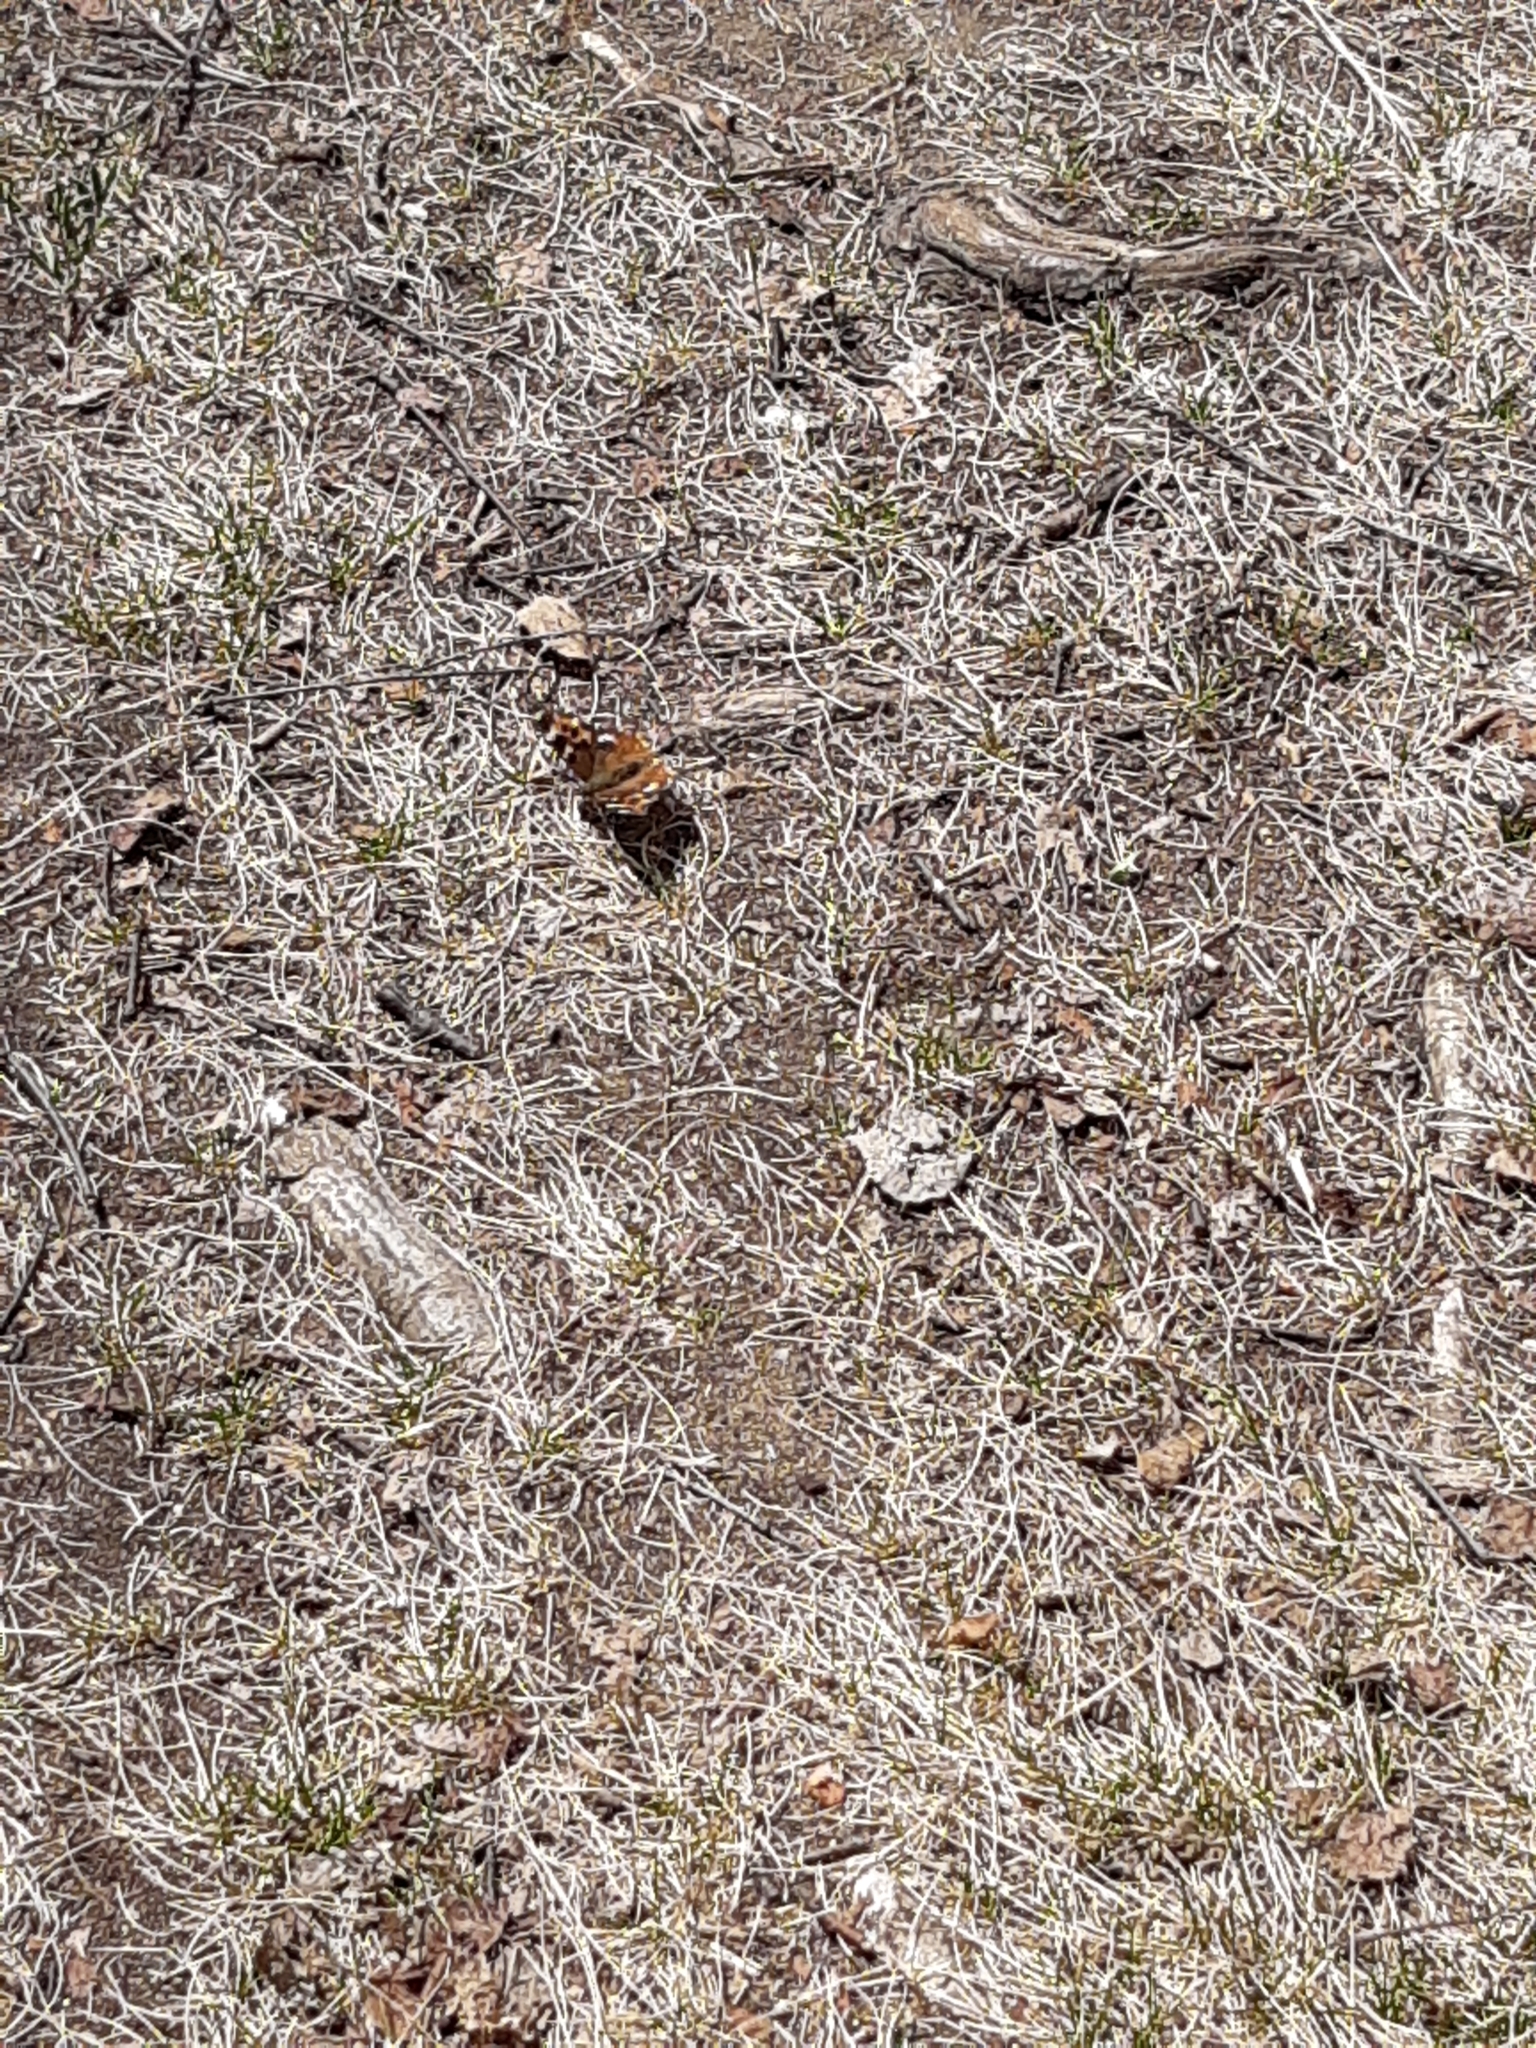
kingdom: Animalia
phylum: Arthropoda
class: Insecta
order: Lepidoptera
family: Nymphalidae
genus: Polygonia
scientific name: Polygonia vaualbum
